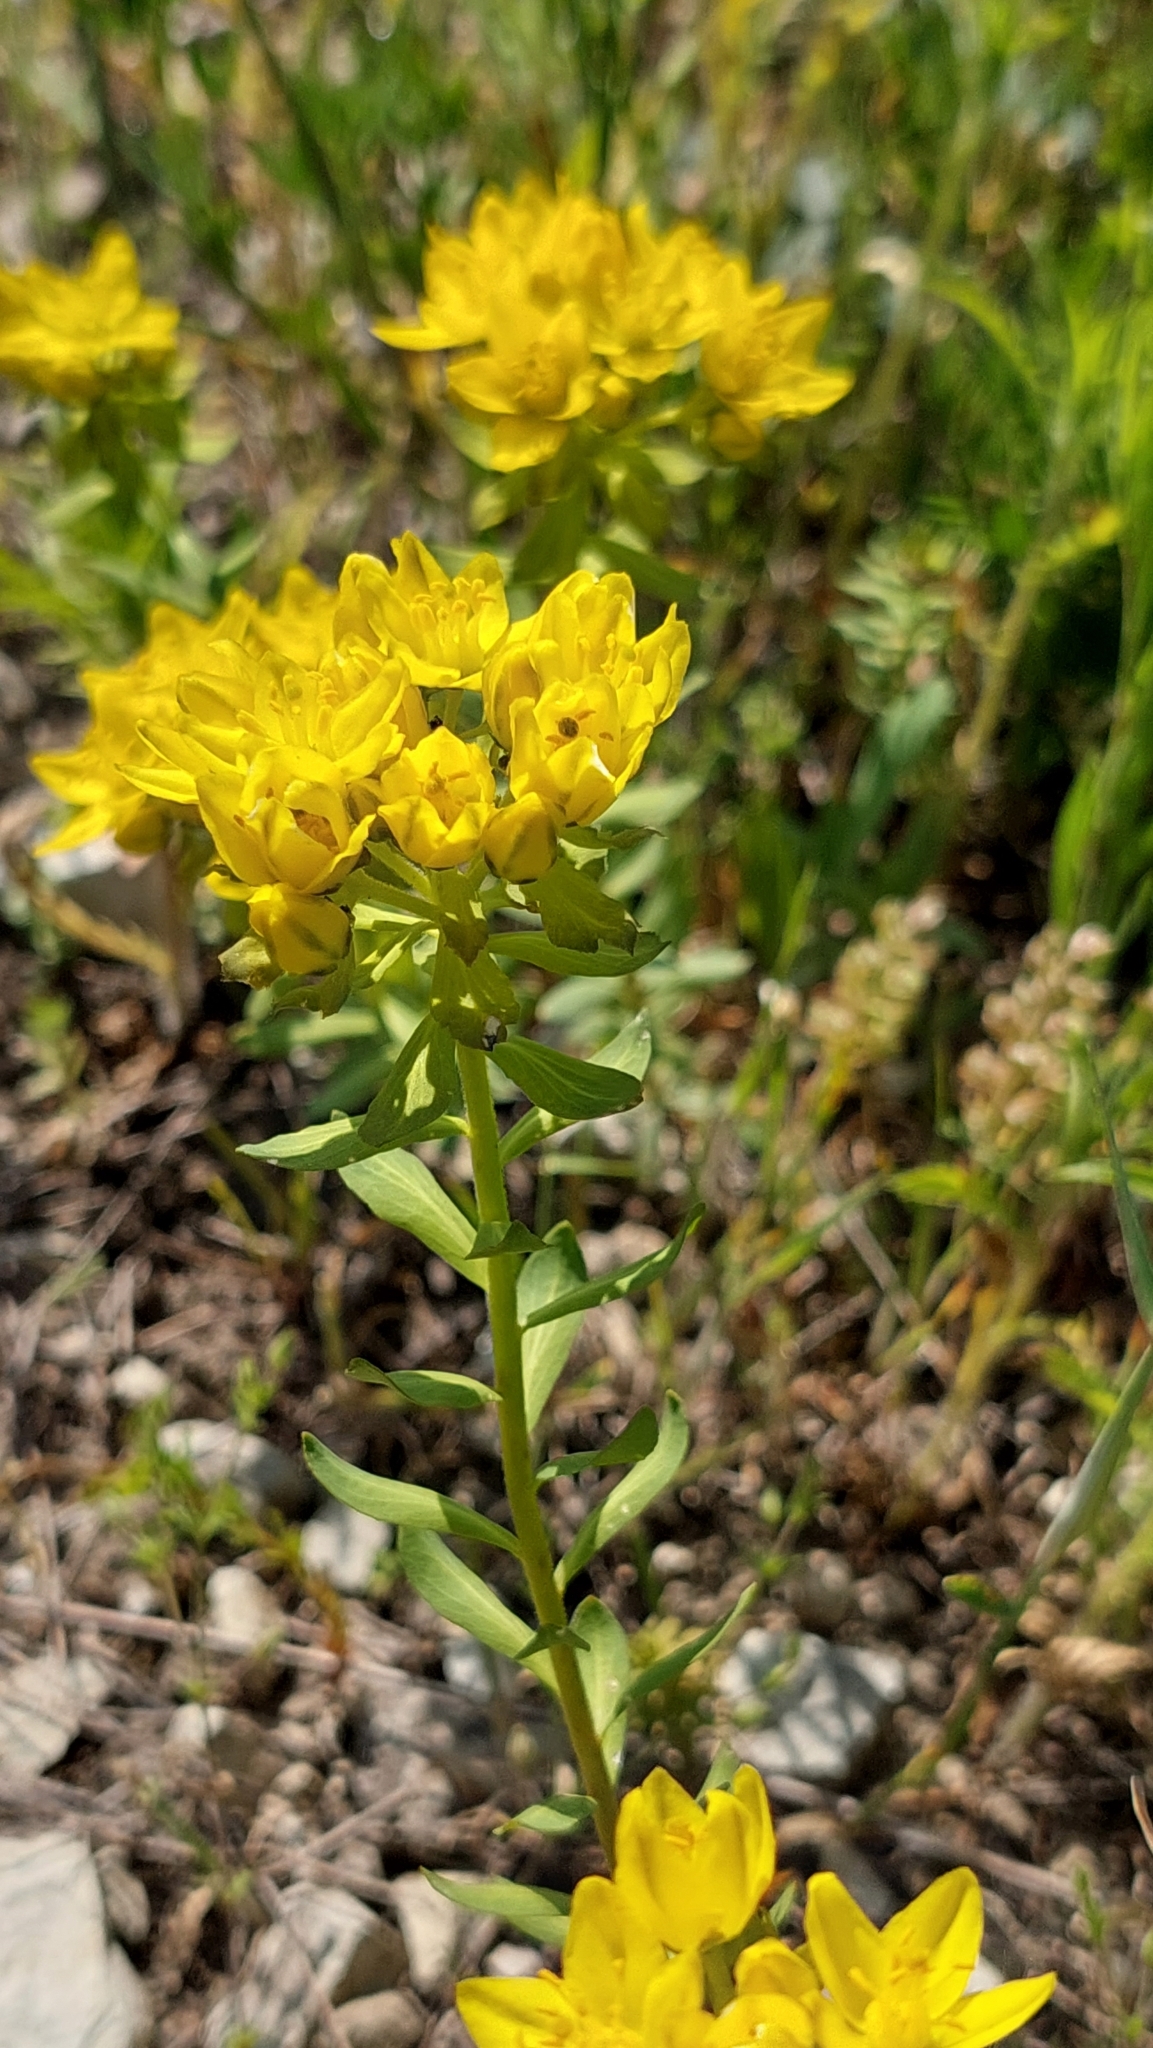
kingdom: Plantae
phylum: Tracheophyta
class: Magnoliopsida
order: Sapindales
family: Rutaceae
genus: Haplophyllum
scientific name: Haplophyllum suaveolens
